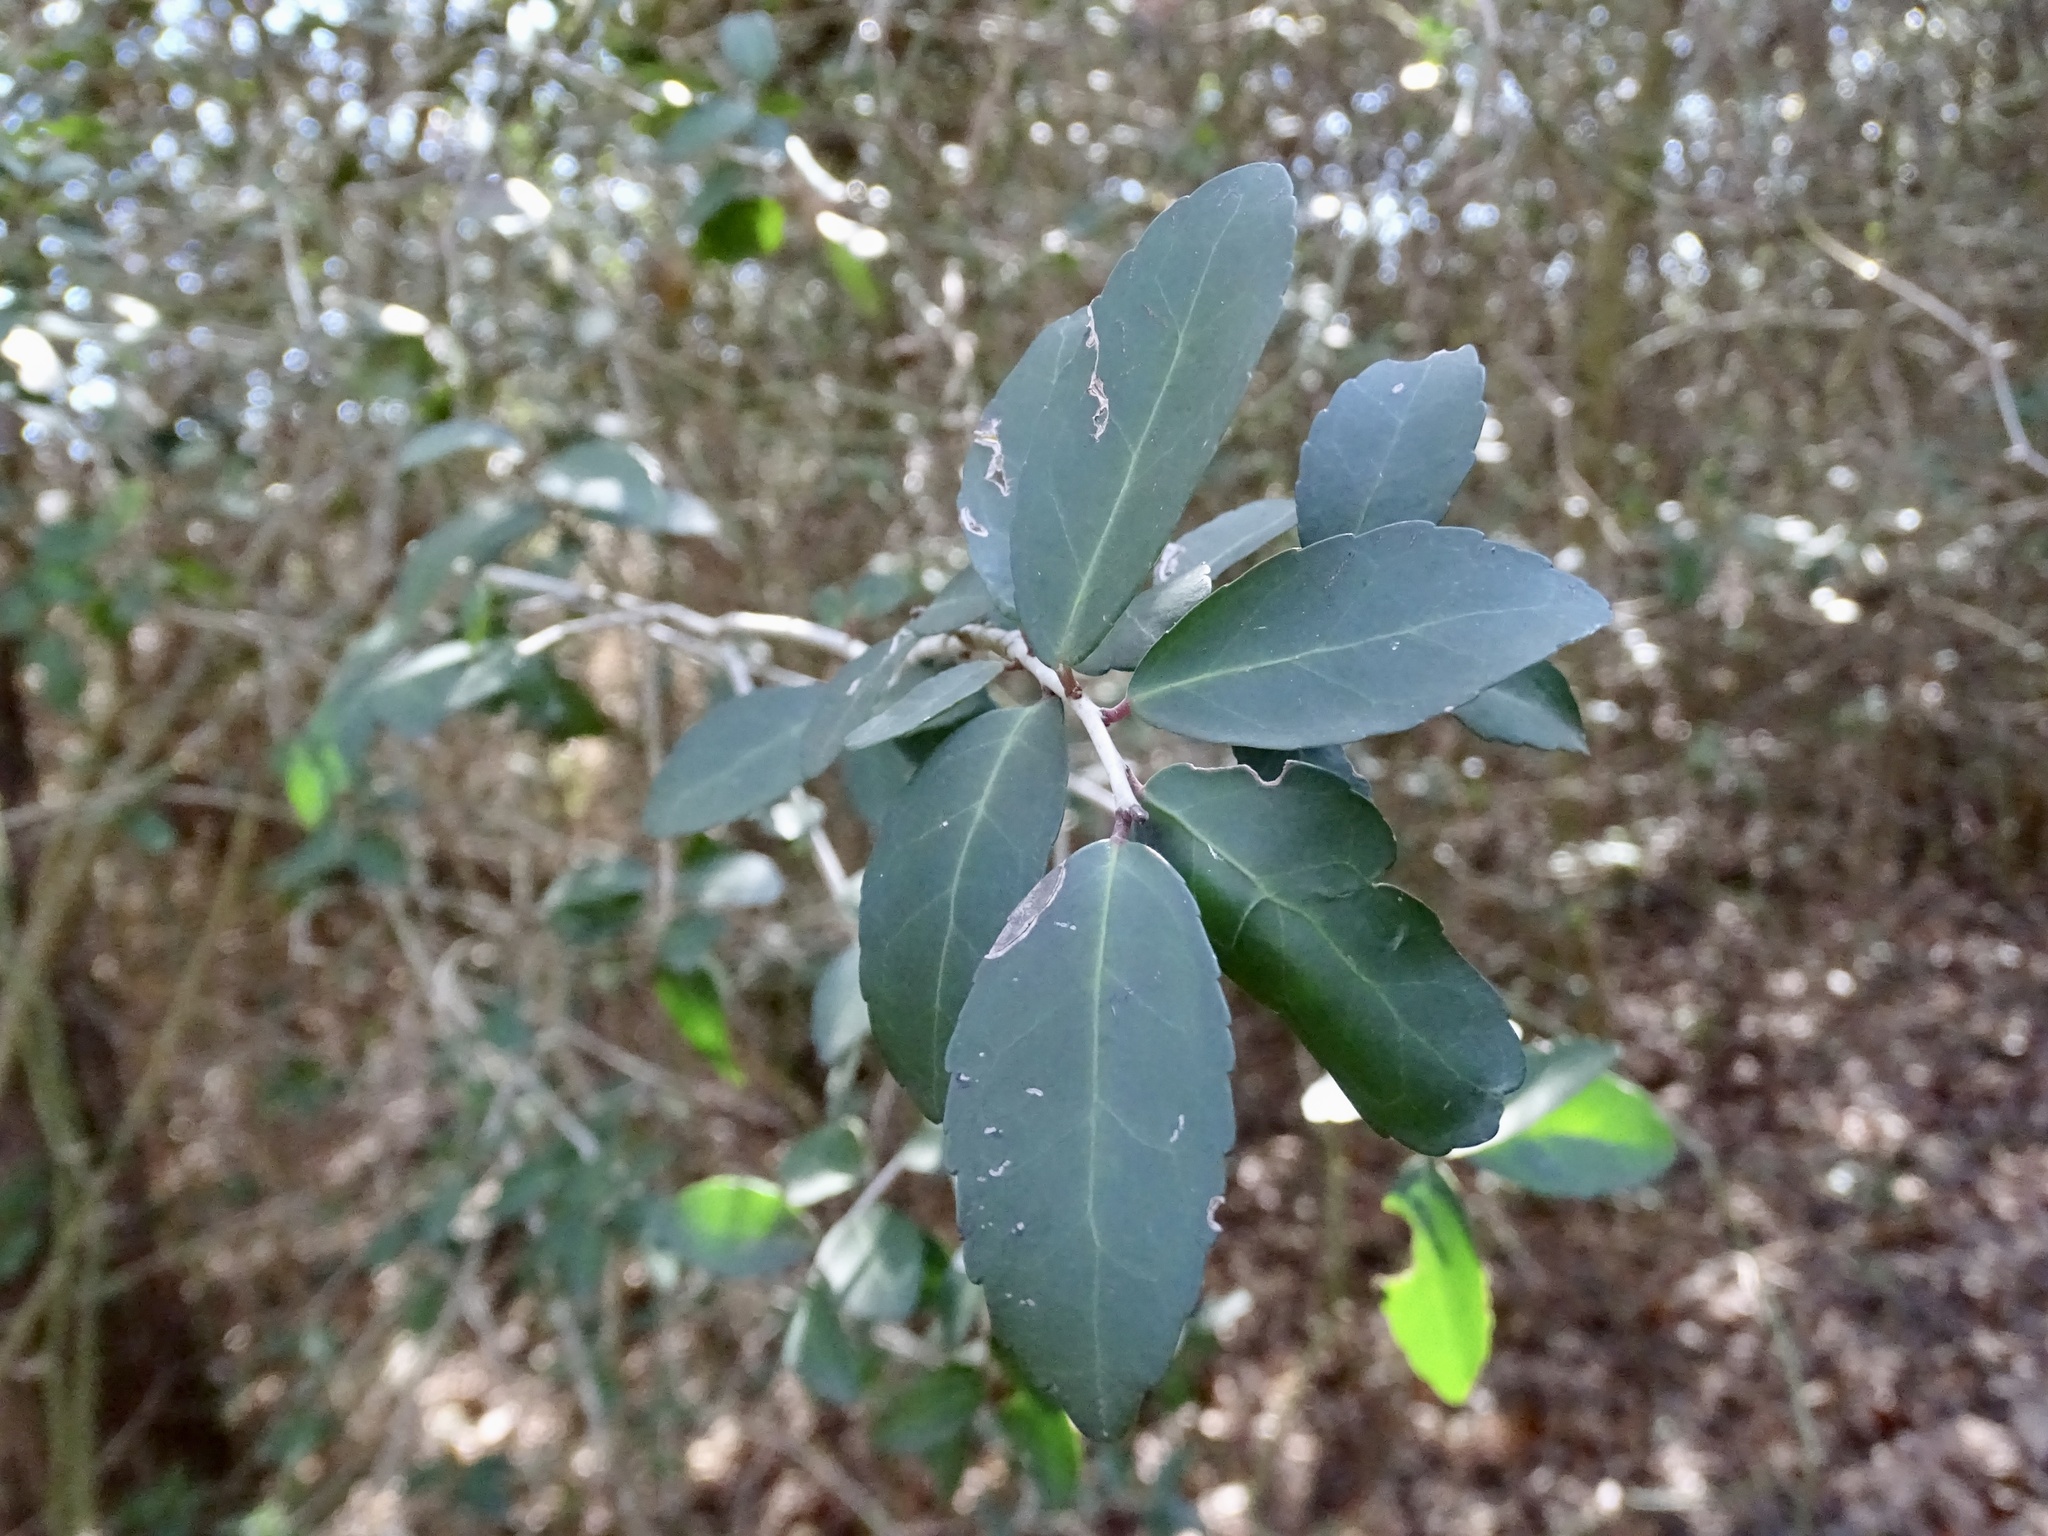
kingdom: Plantae
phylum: Tracheophyta
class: Magnoliopsida
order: Aquifoliales
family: Aquifoliaceae
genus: Ilex
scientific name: Ilex vomitoria
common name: Yaupon holly
